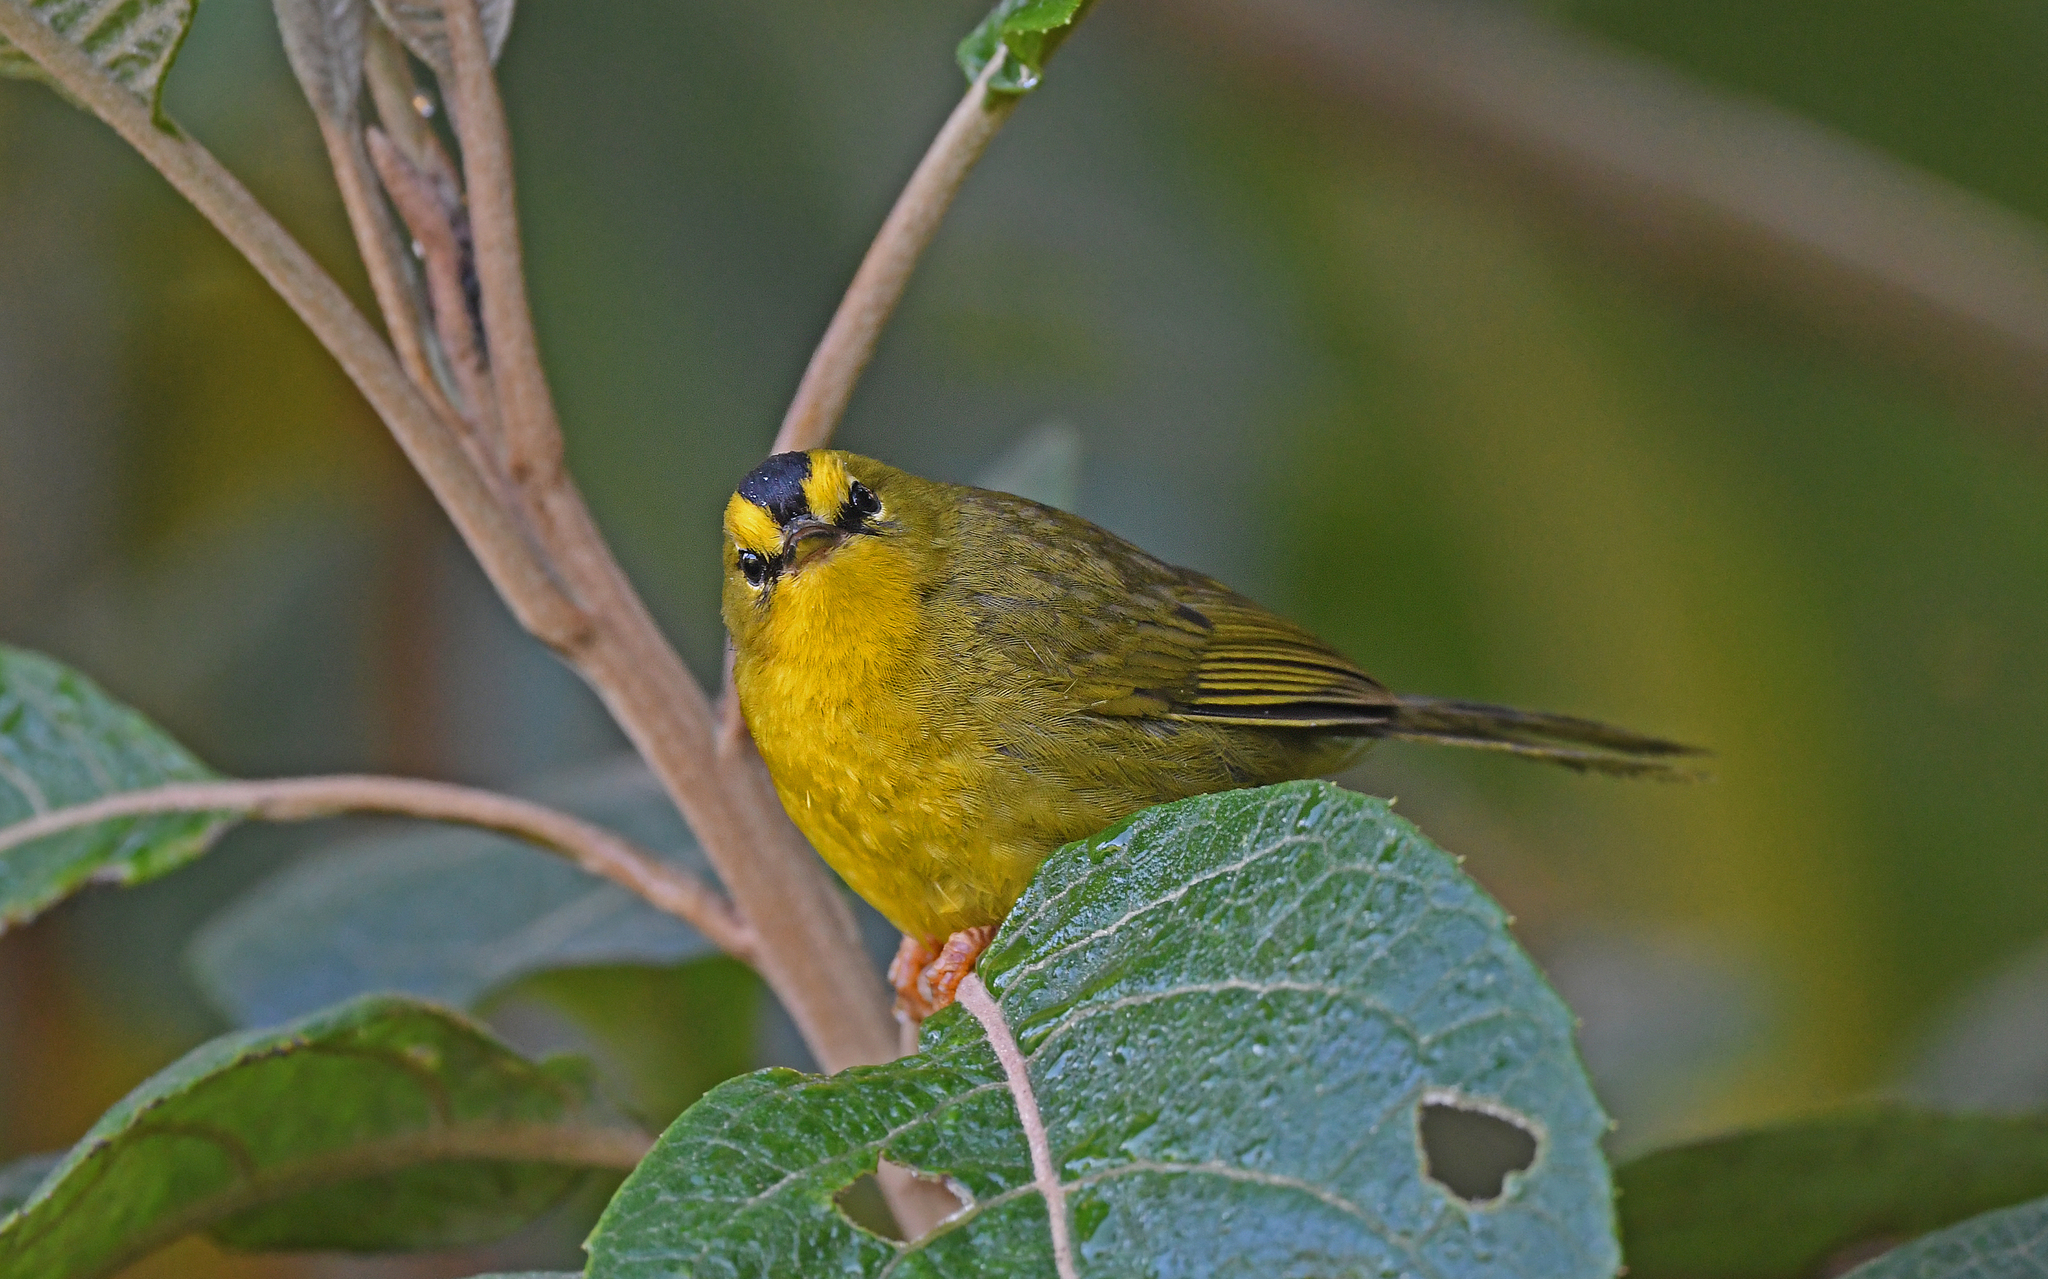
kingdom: Animalia
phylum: Chordata
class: Aves
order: Passeriformes
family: Parulidae
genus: Myiothlypis
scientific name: Myiothlypis nigrocristata
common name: Black-crested warbler
